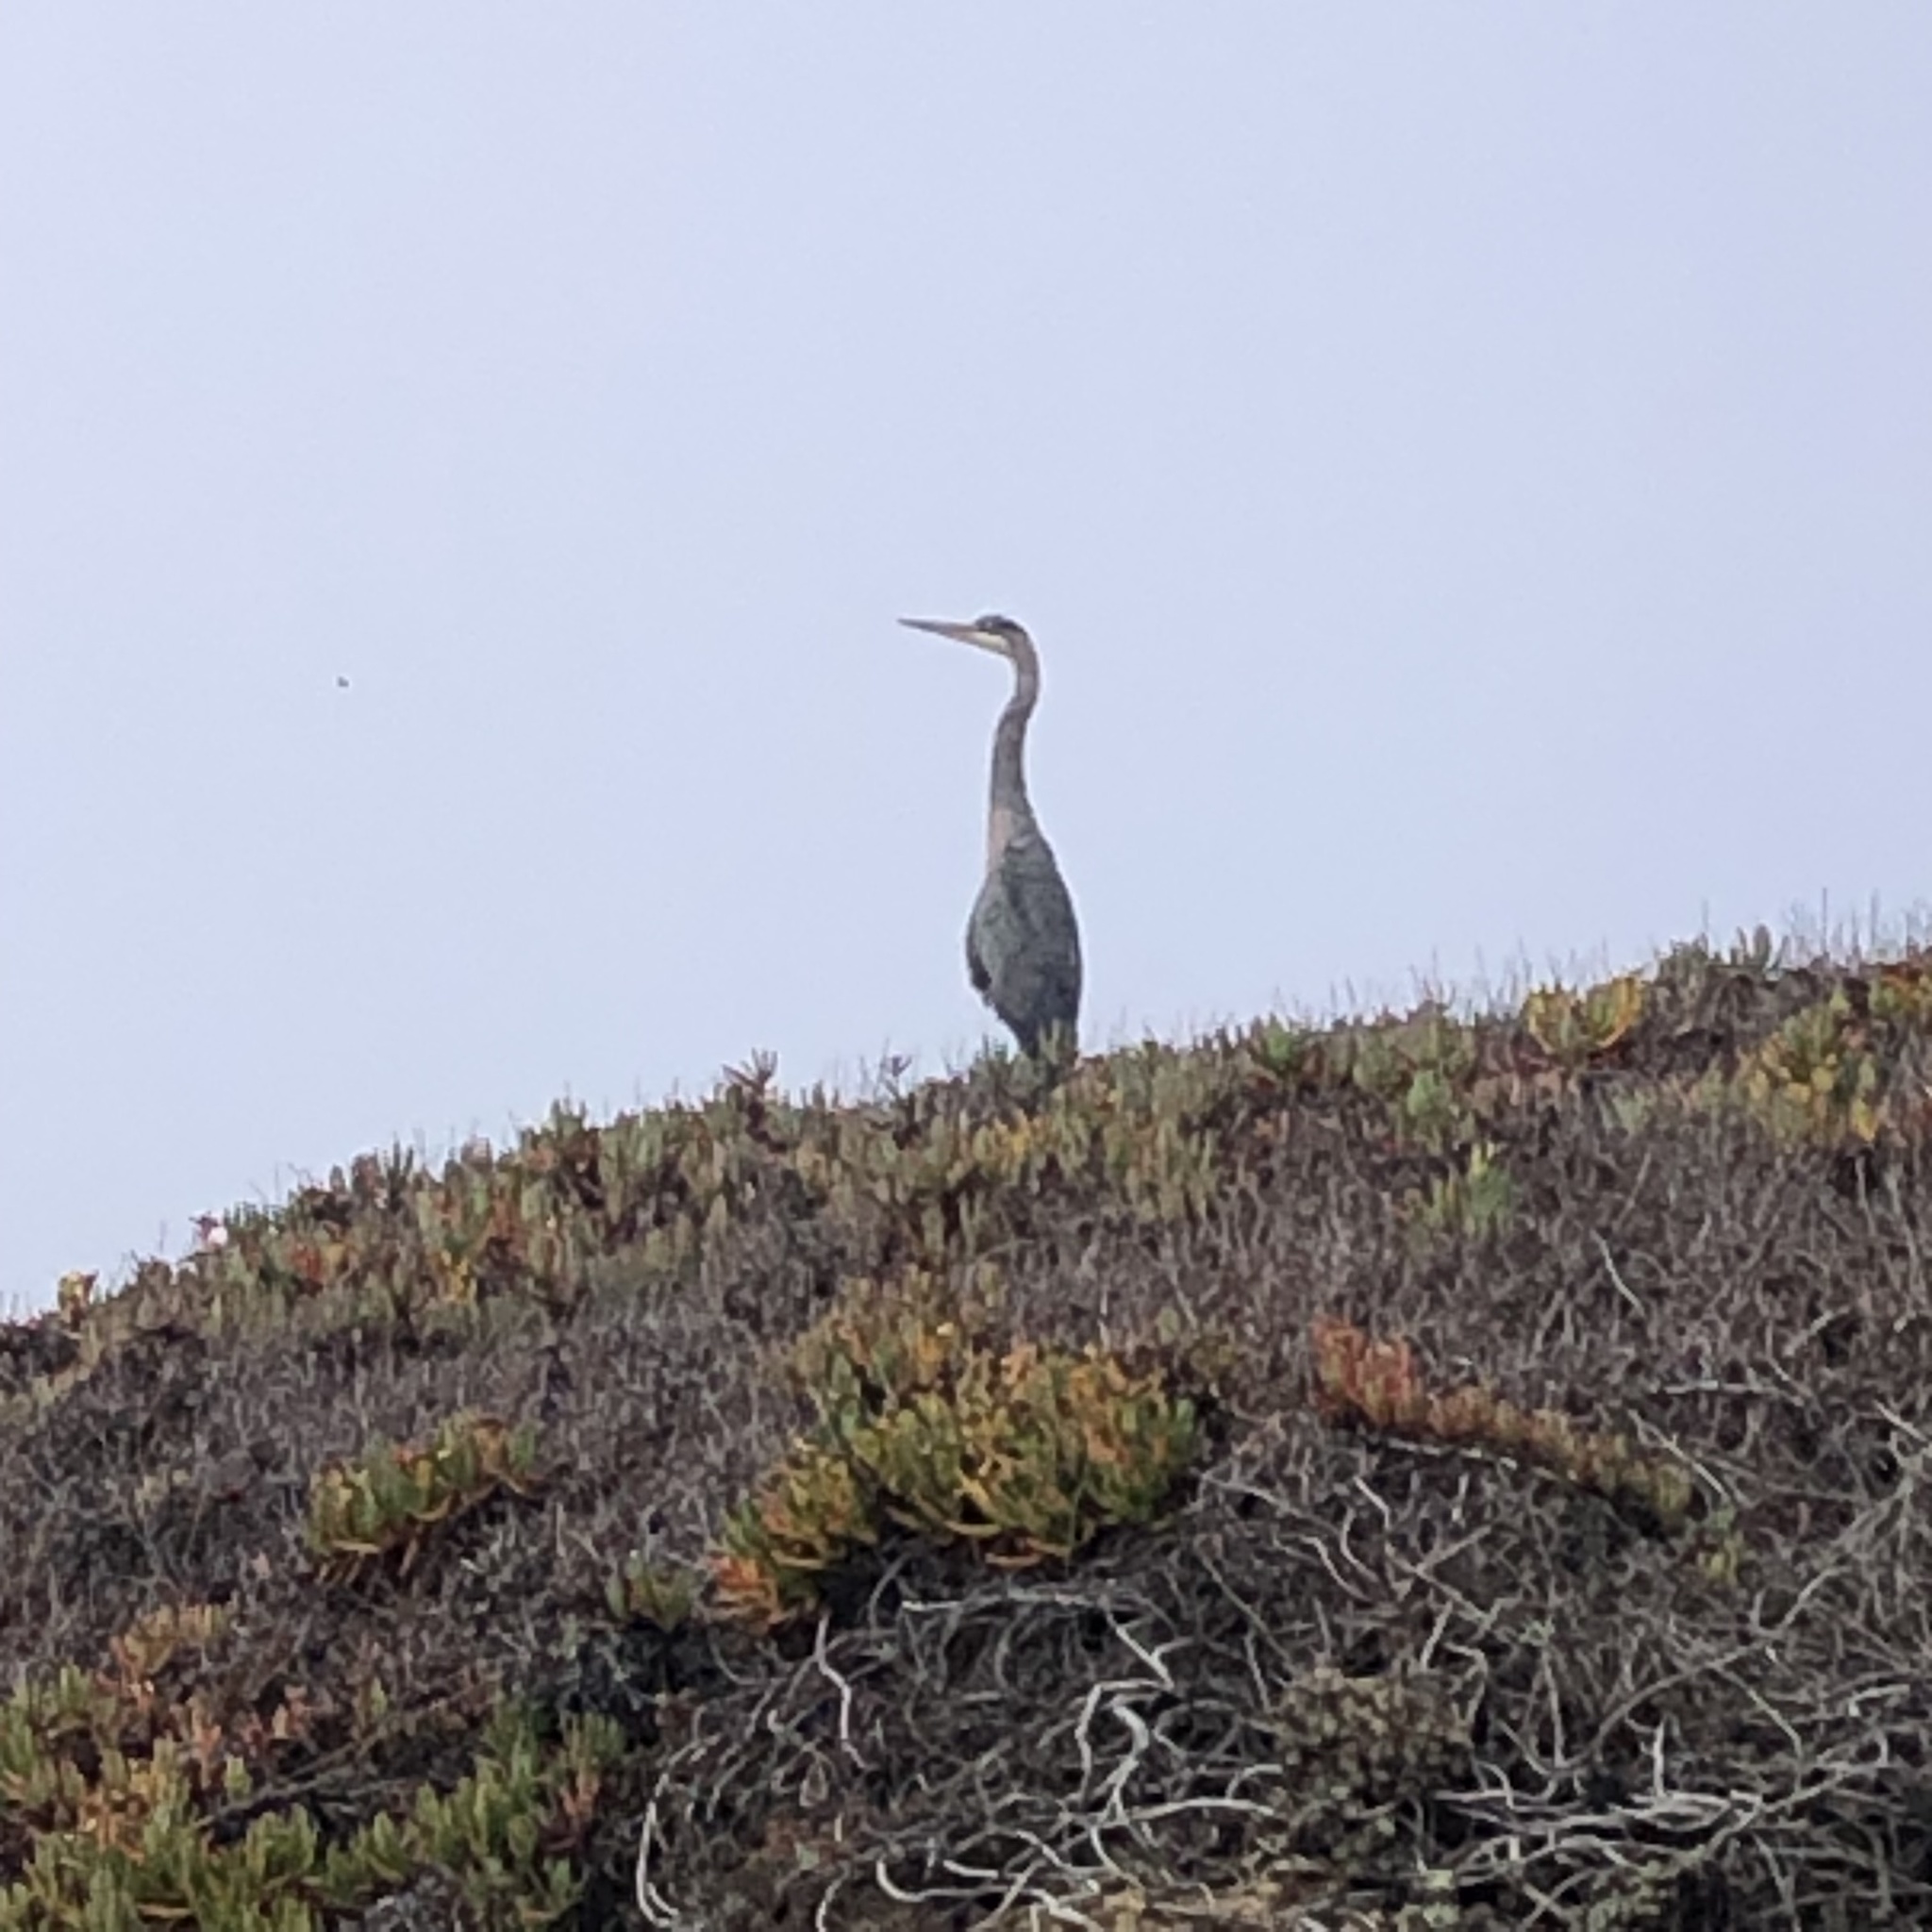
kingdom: Animalia
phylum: Chordata
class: Aves
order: Pelecaniformes
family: Ardeidae
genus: Ardea
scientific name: Ardea herodias
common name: Great blue heron
